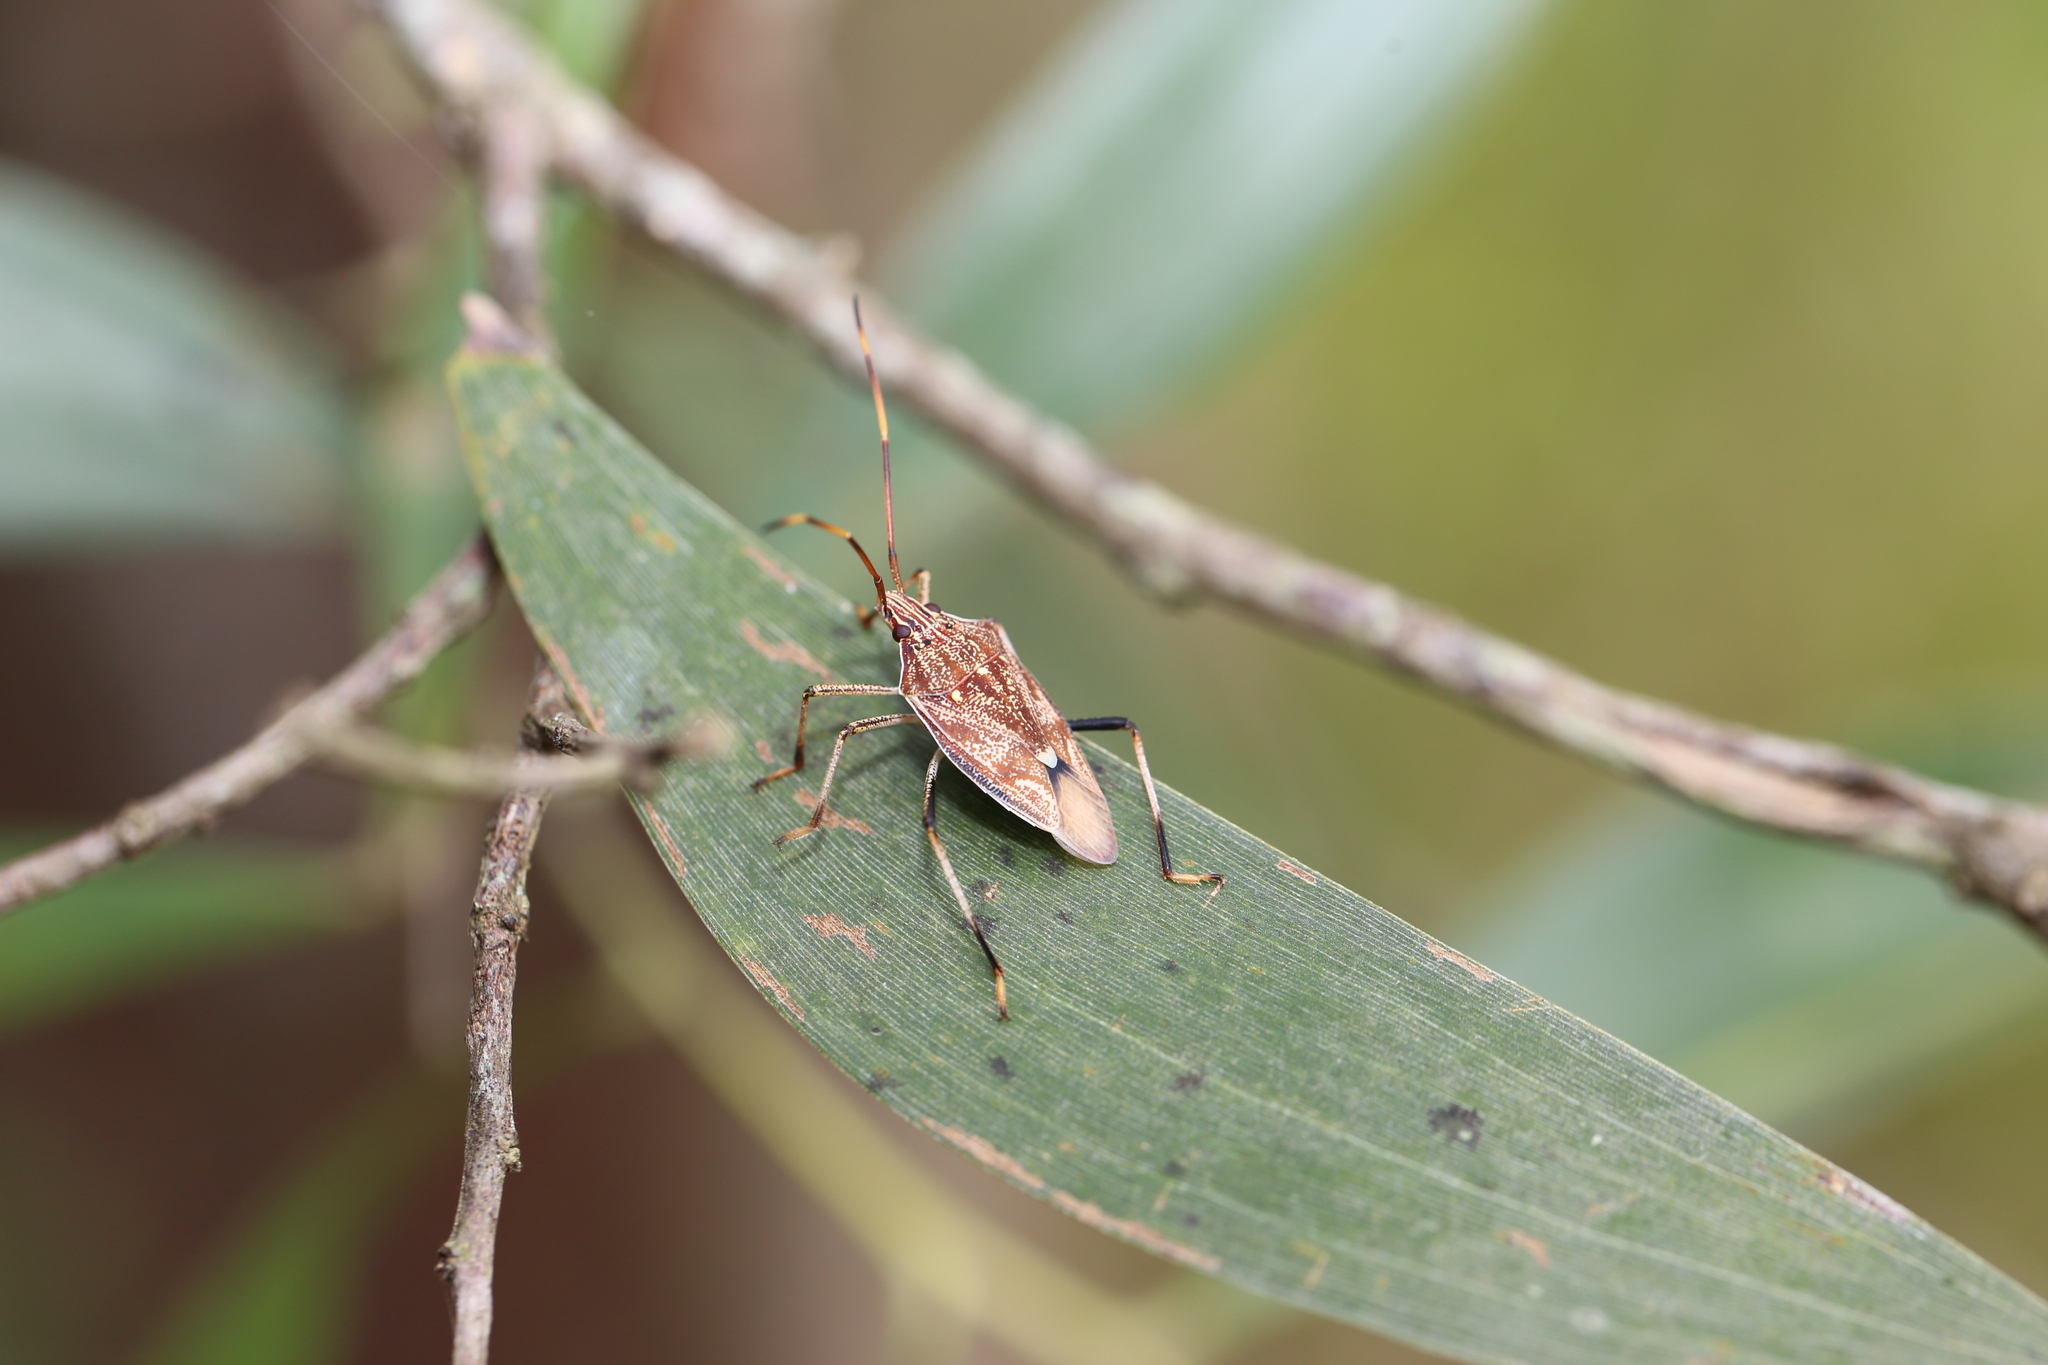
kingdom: Animalia
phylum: Arthropoda
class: Insecta
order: Hemiptera
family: Pentatomidae
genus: Poecilometis
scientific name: Poecilometis
